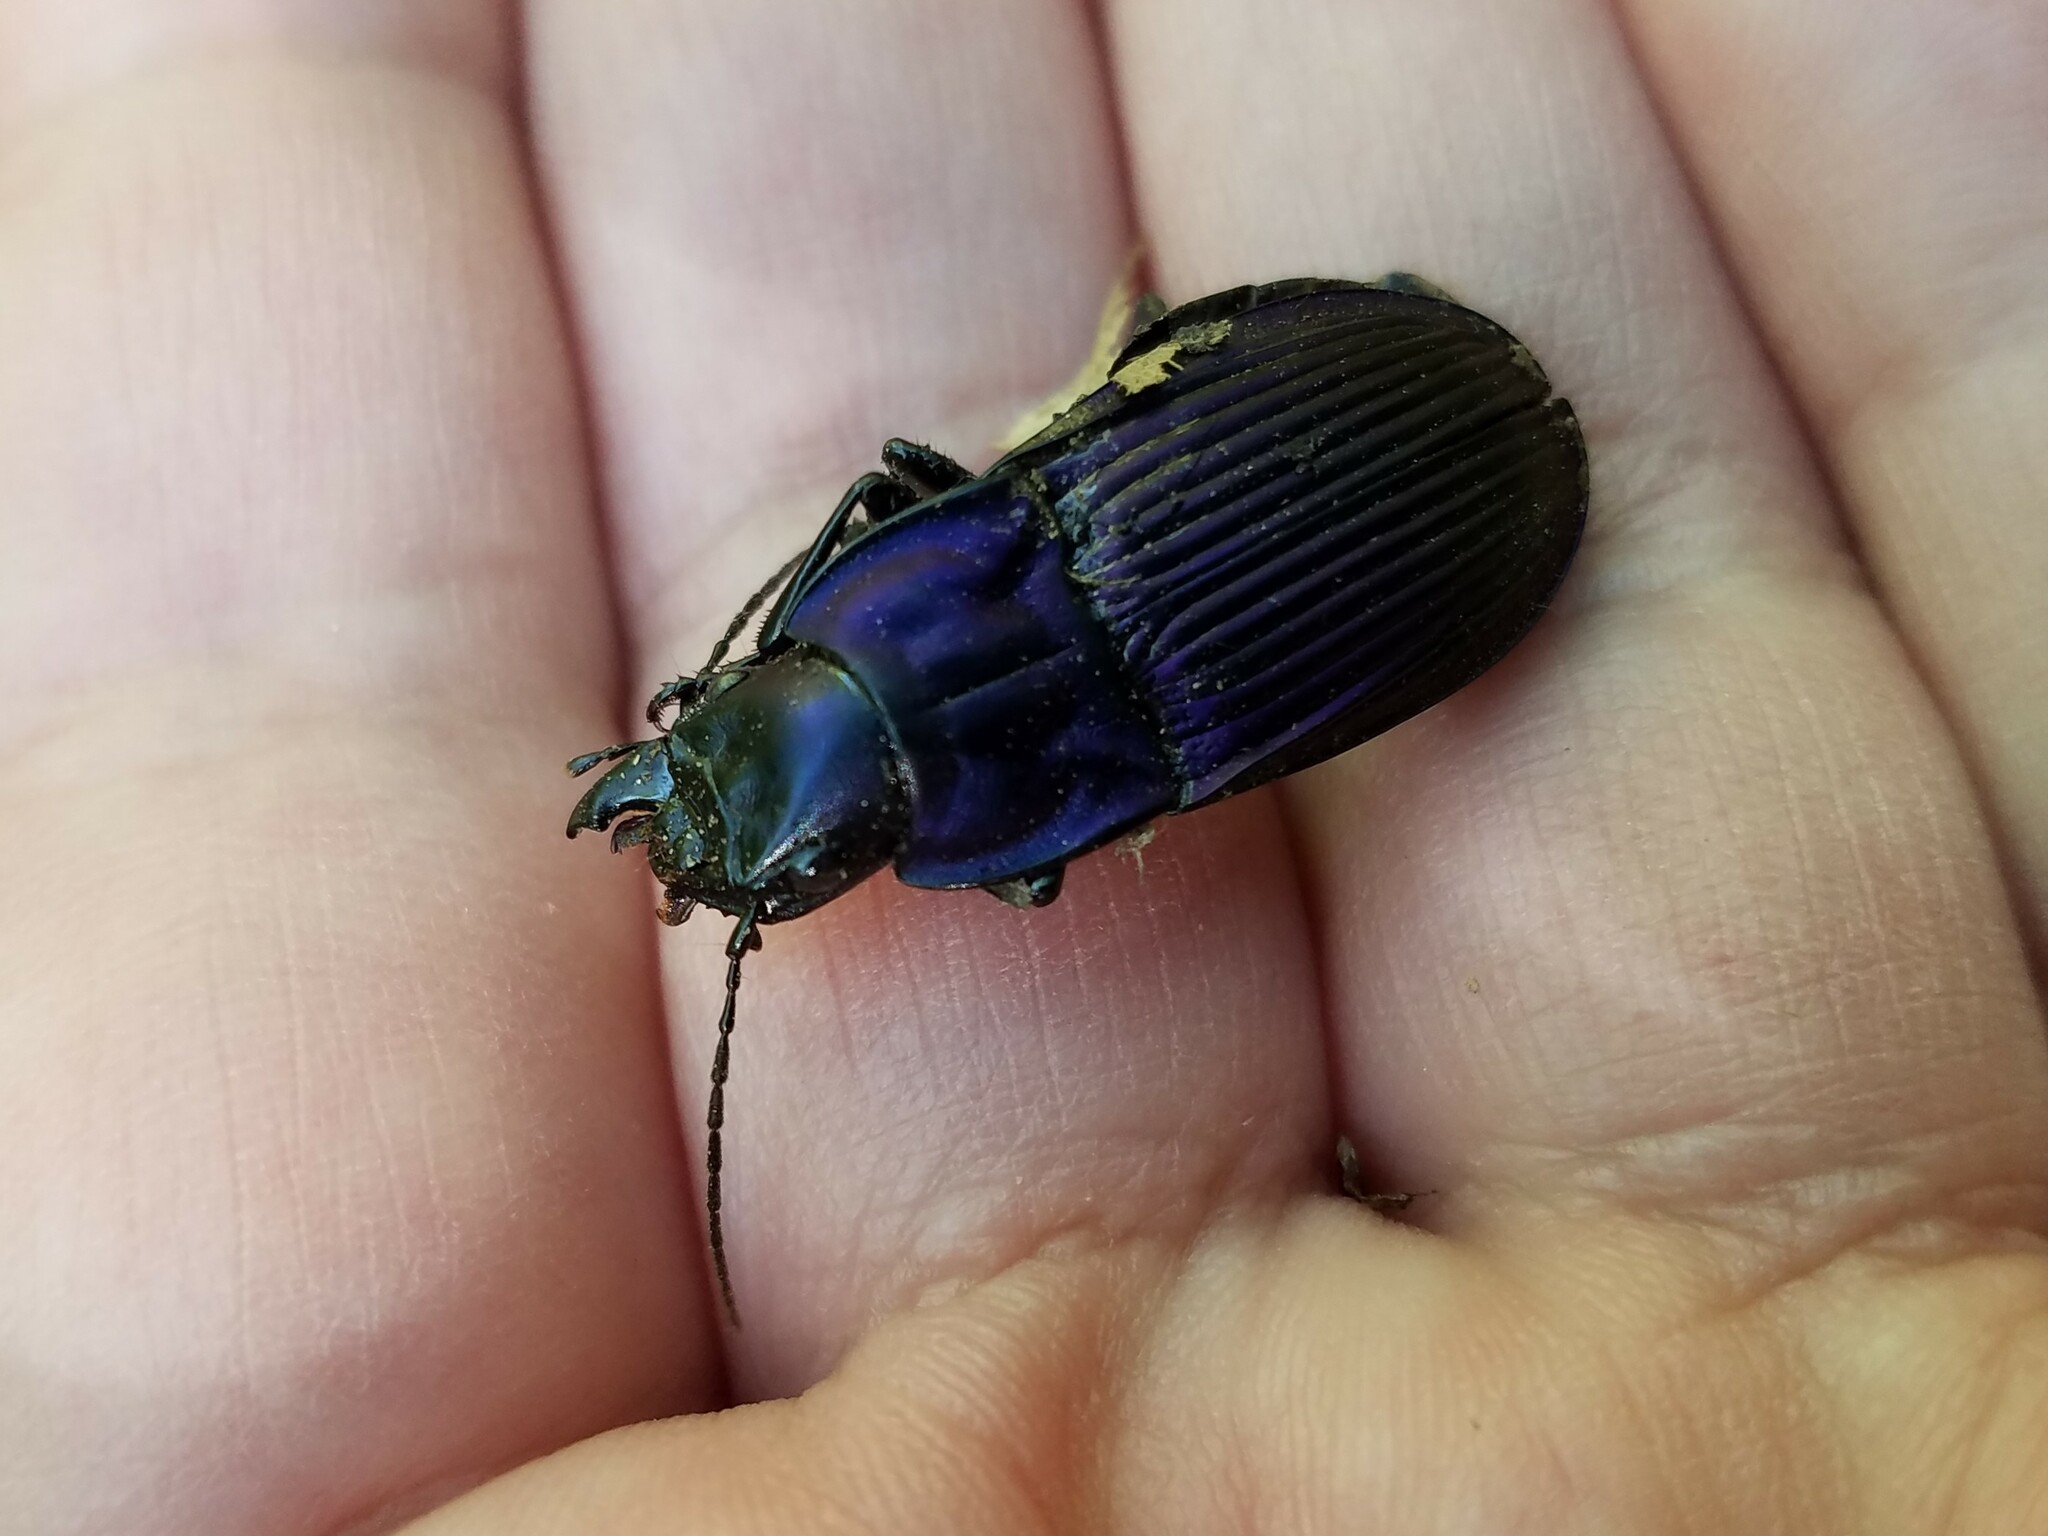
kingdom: Animalia
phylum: Arthropoda
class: Insecta
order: Coleoptera
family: Carabidae
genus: Dicaelus
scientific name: Dicaelus purpuratus
